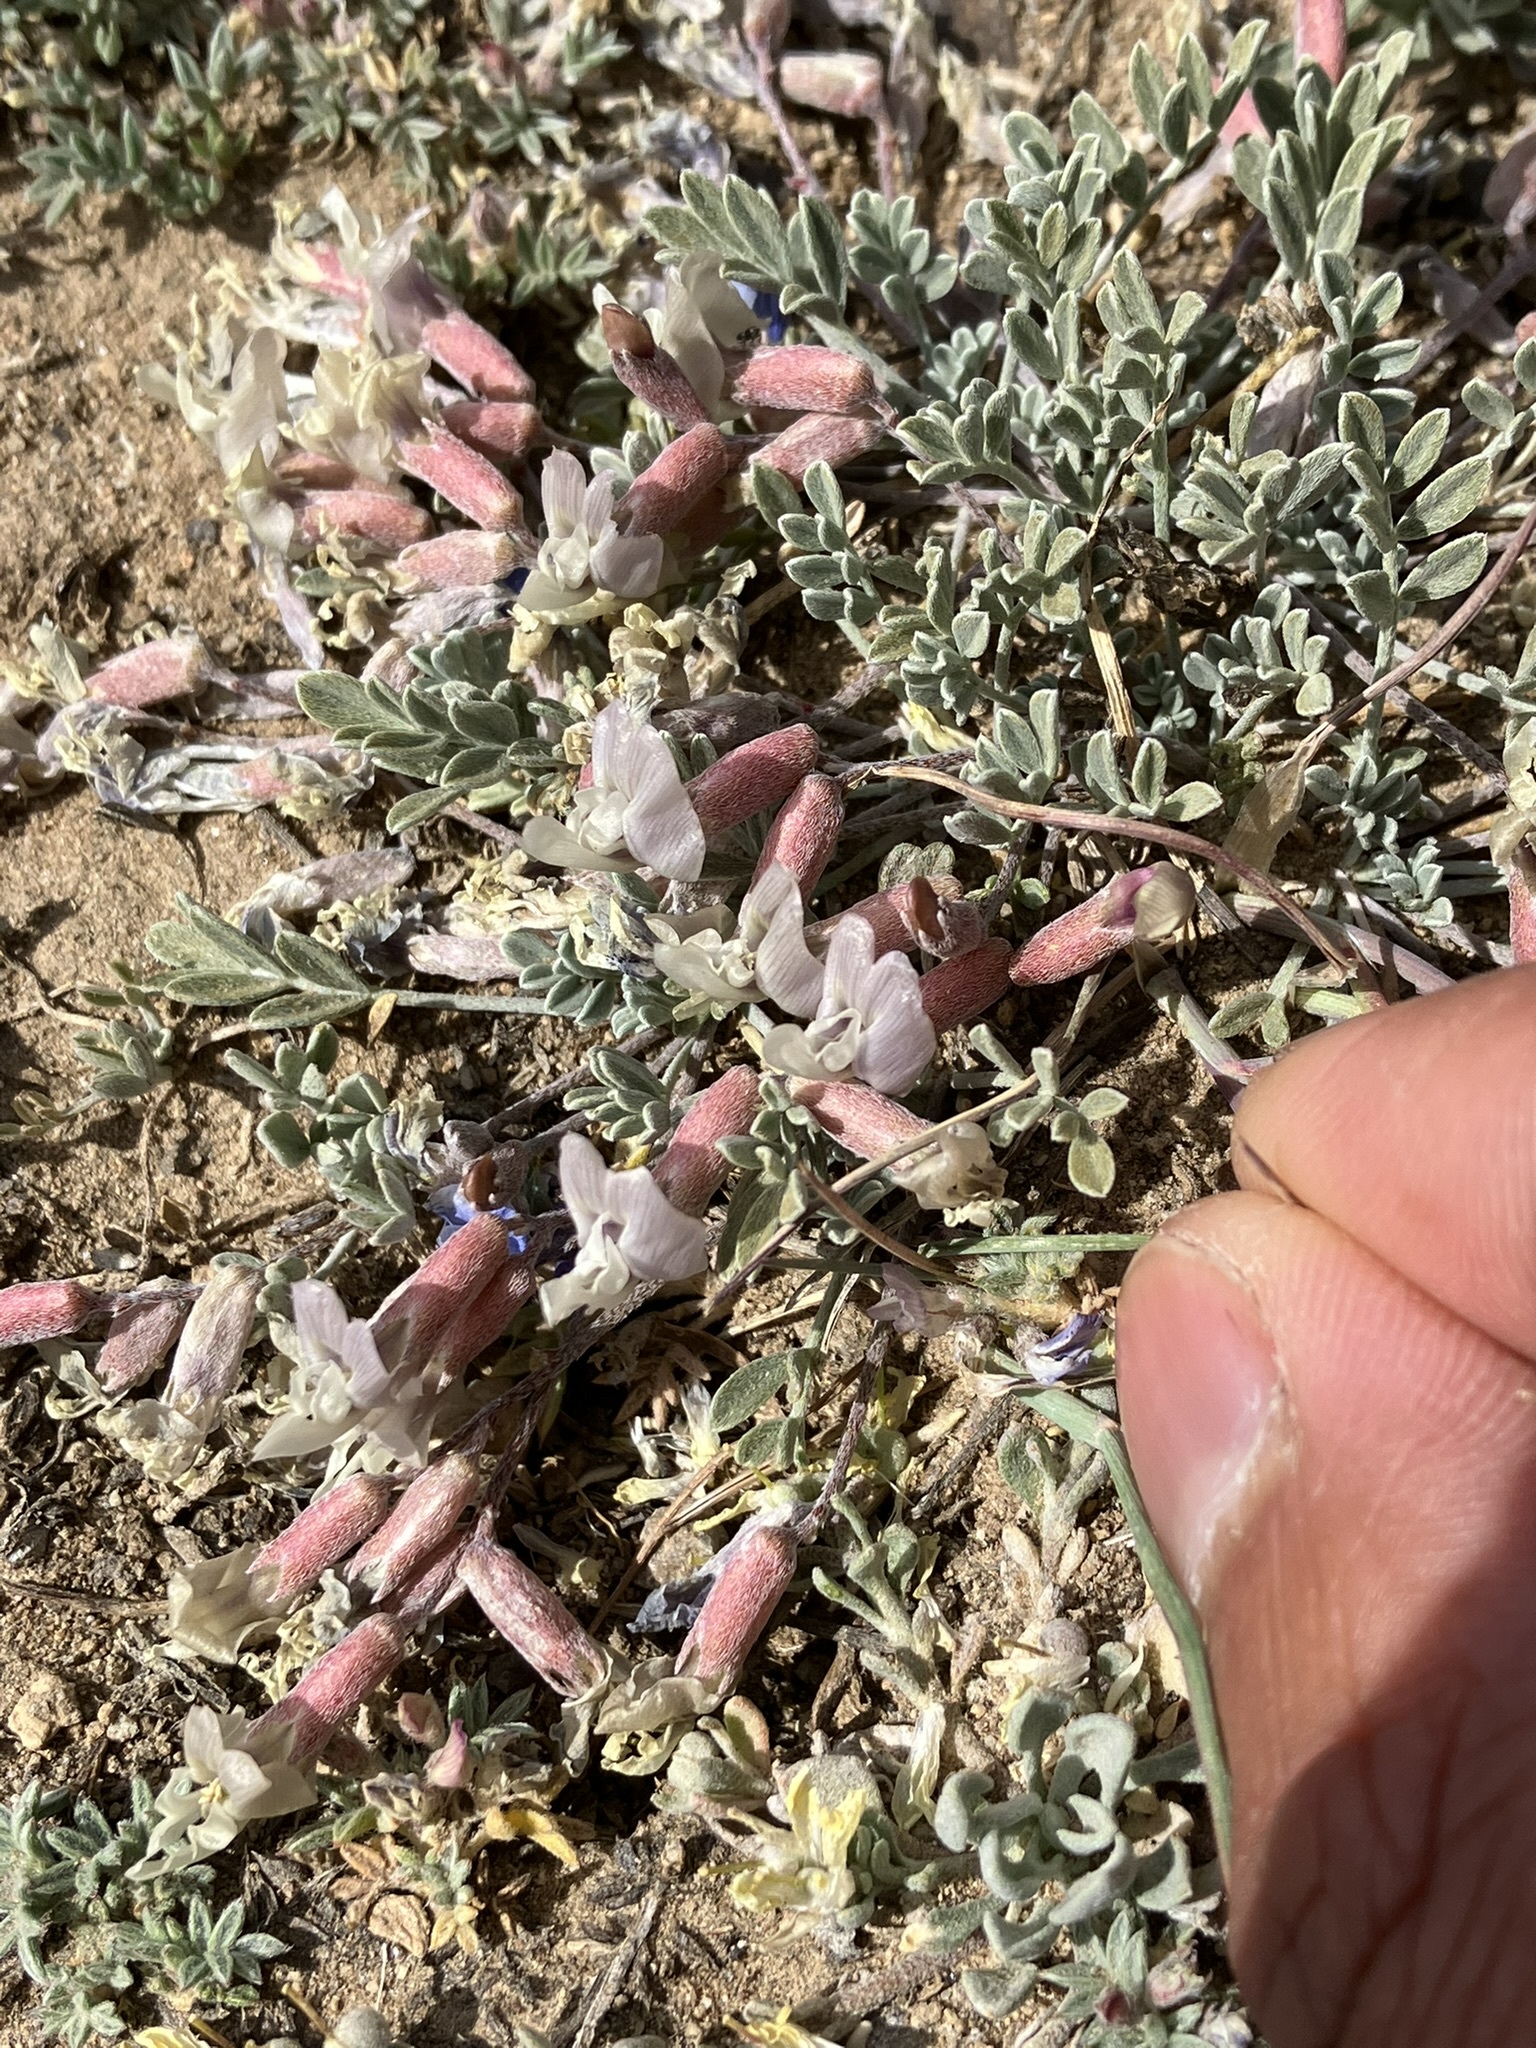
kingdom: Plantae
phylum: Tracheophyta
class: Magnoliopsida
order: Fabales
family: Fabaceae
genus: Astragalus
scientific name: Astragalus calycosus
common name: King's milkvetch
